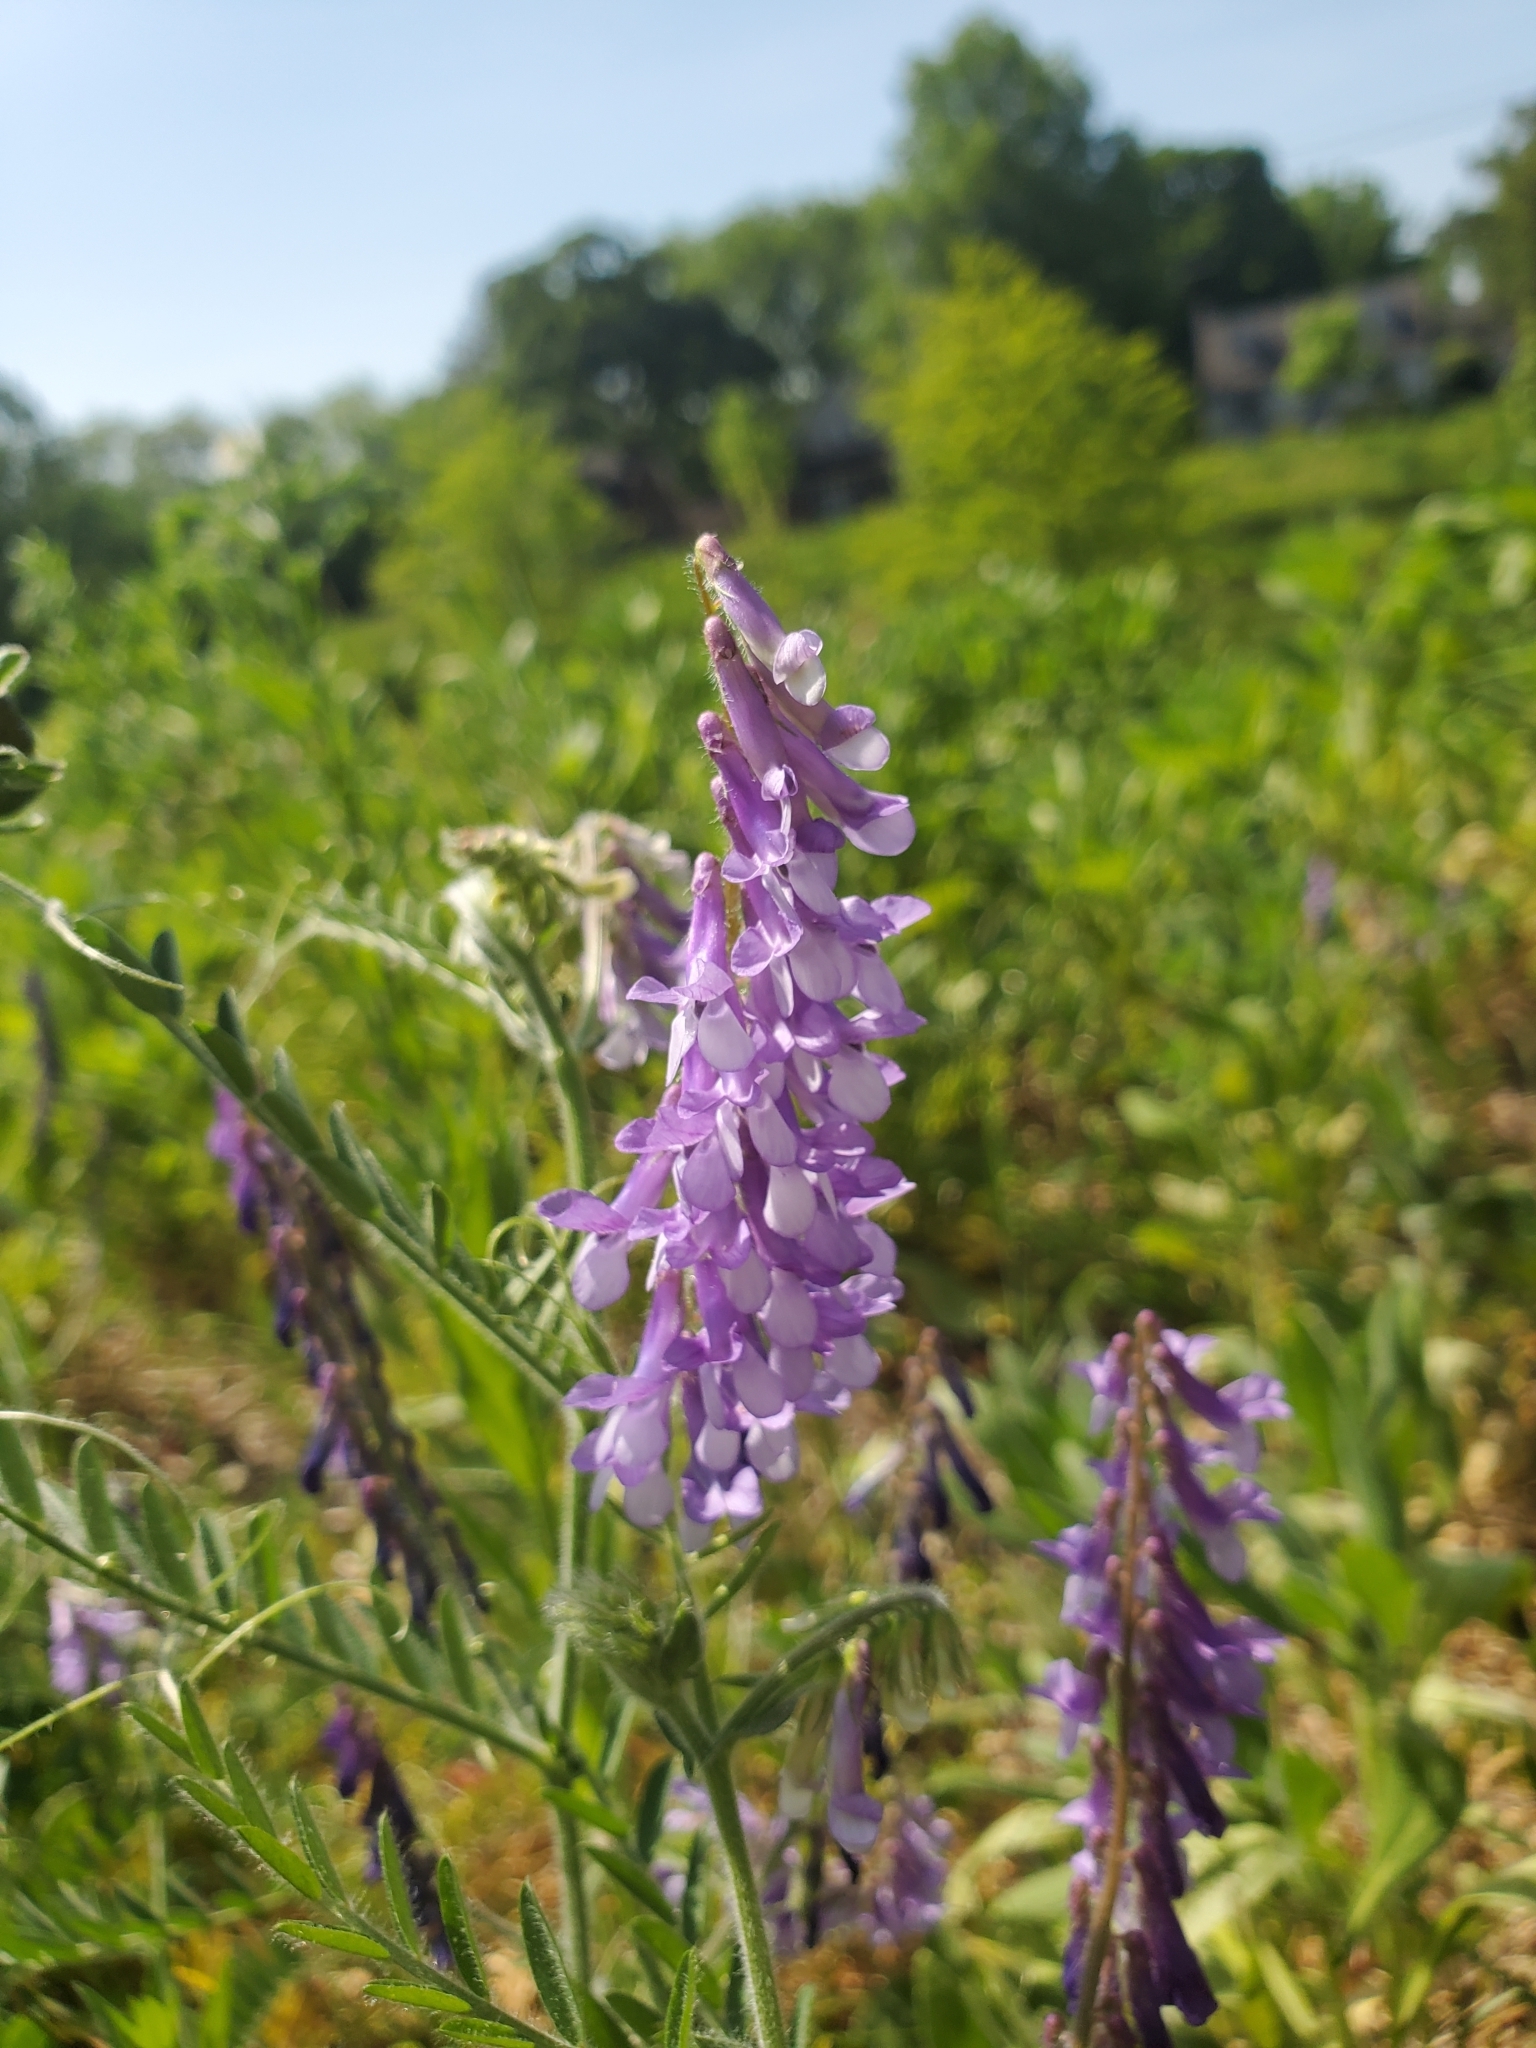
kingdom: Plantae
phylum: Tracheophyta
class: Magnoliopsida
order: Fabales
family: Fabaceae
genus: Vicia
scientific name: Vicia villosa
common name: Fodder vetch
